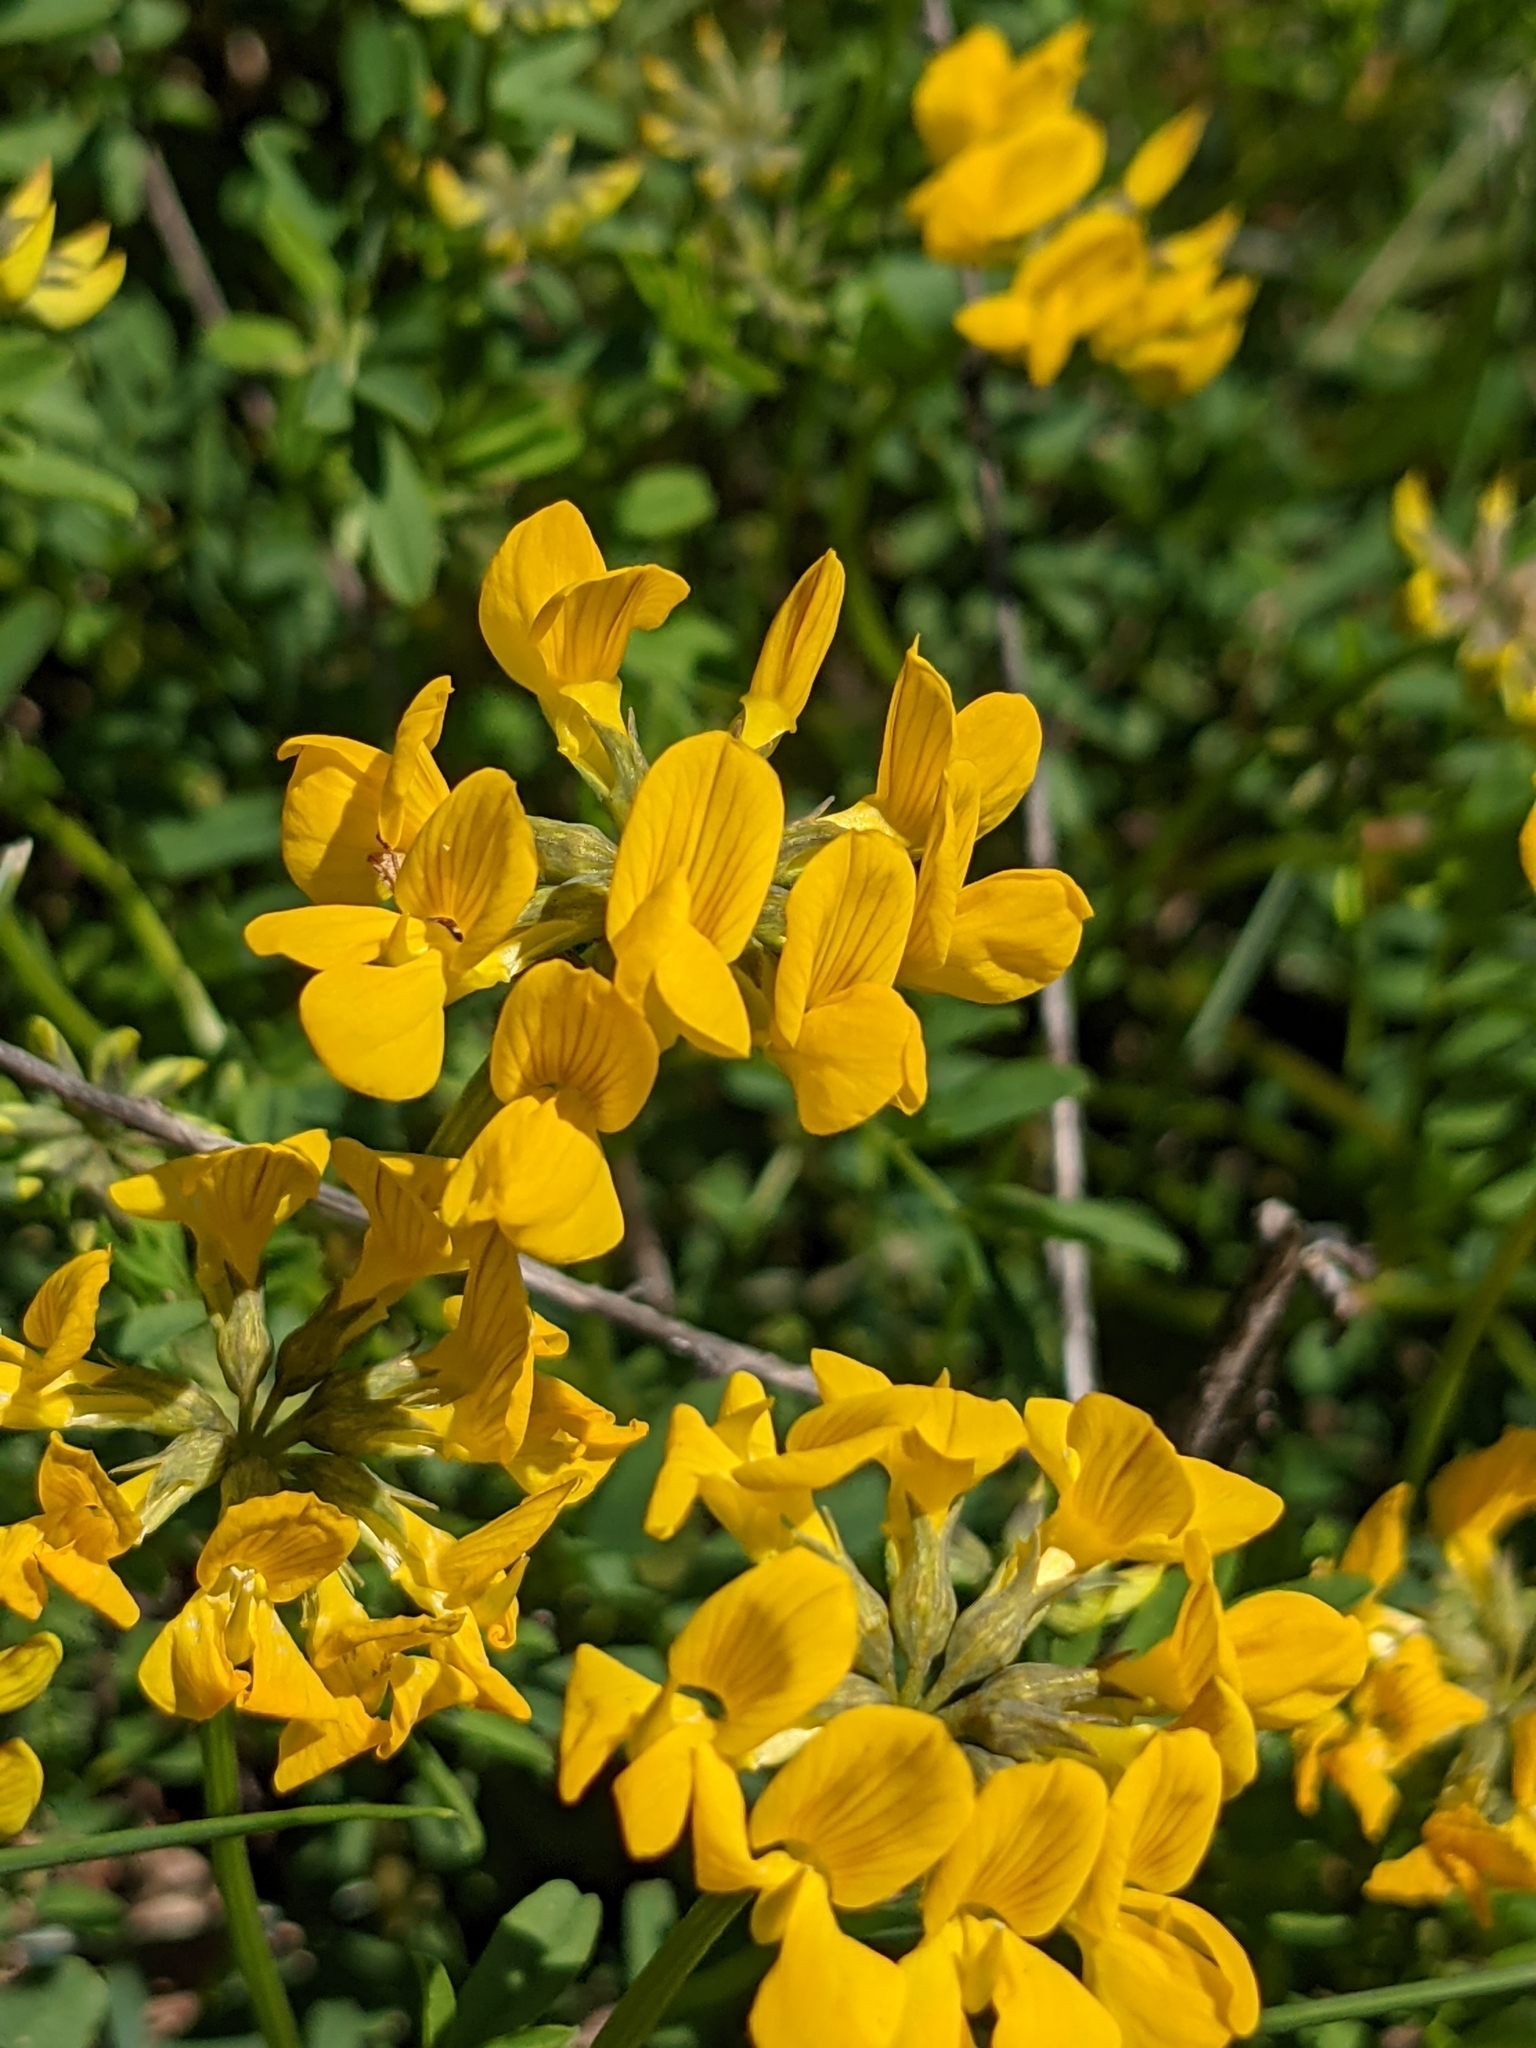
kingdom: Plantae
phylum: Tracheophyta
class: Magnoliopsida
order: Fabales
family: Fabaceae
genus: Hippocrepis
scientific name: Hippocrepis comosa
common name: Horseshoe vetch
